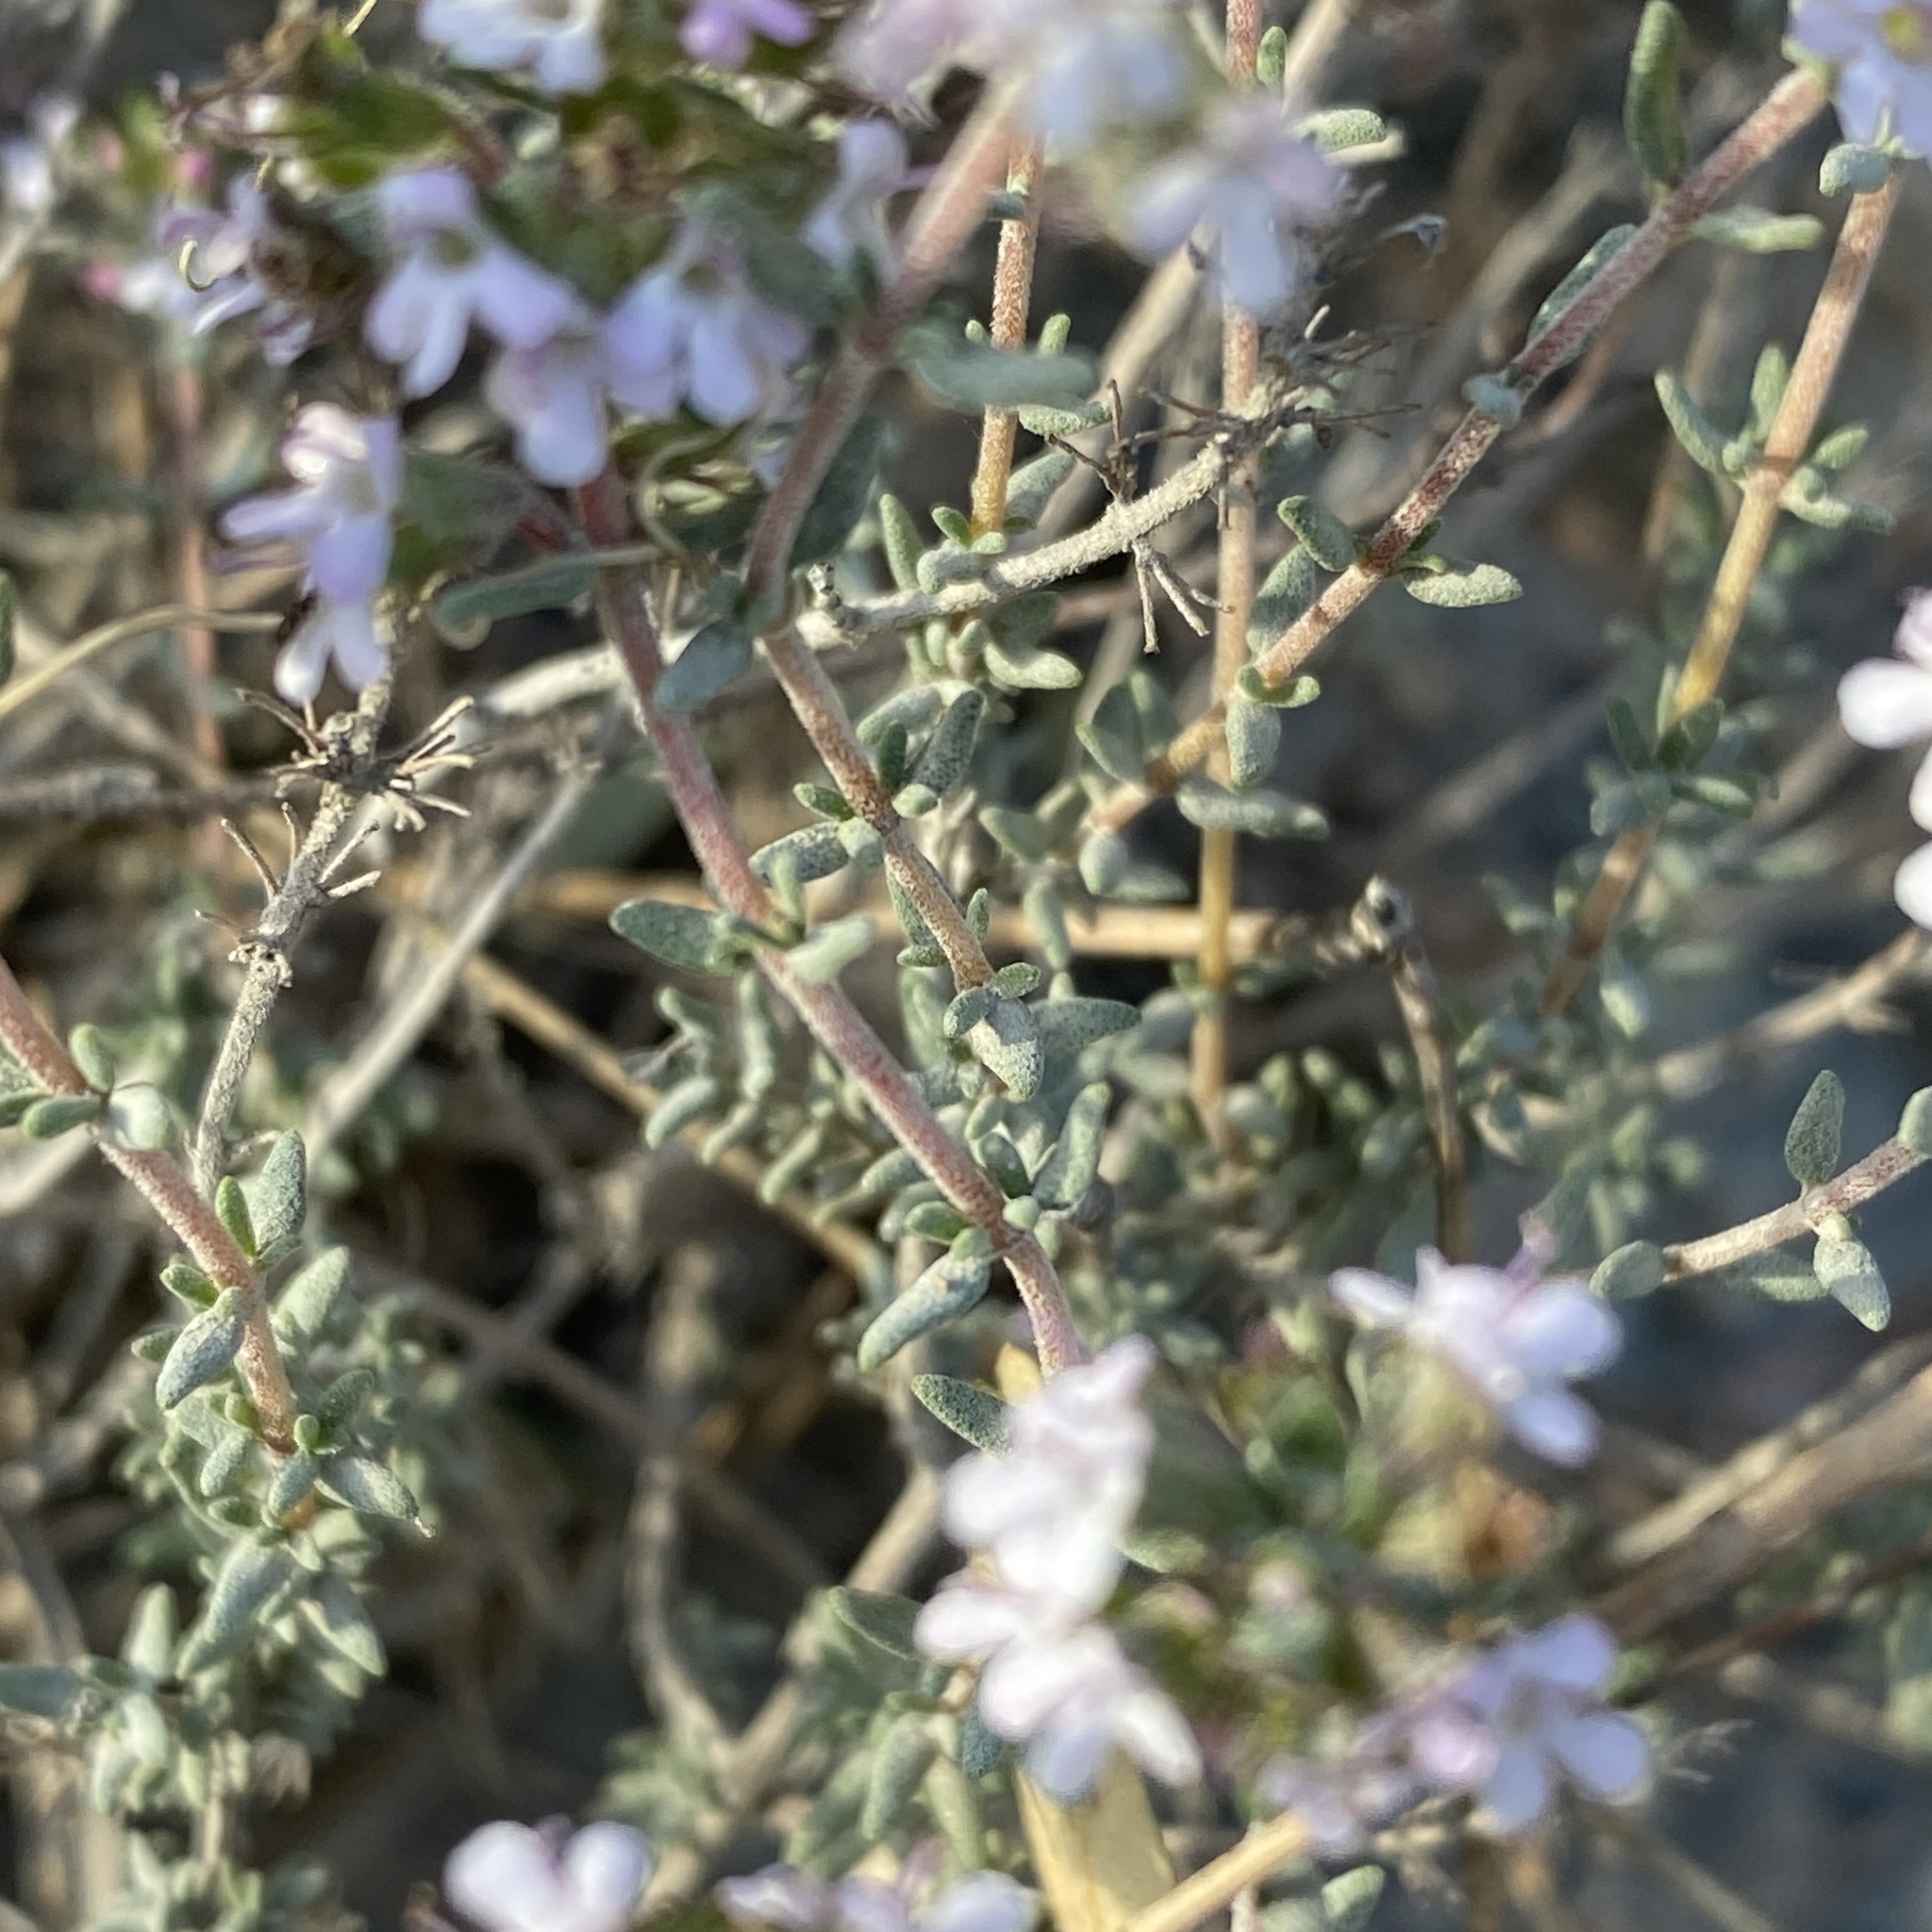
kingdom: Plantae
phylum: Tracheophyta
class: Magnoliopsida
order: Lamiales
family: Lamiaceae
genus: Thymus
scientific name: Thymus vulgaris
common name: Garden thyme
